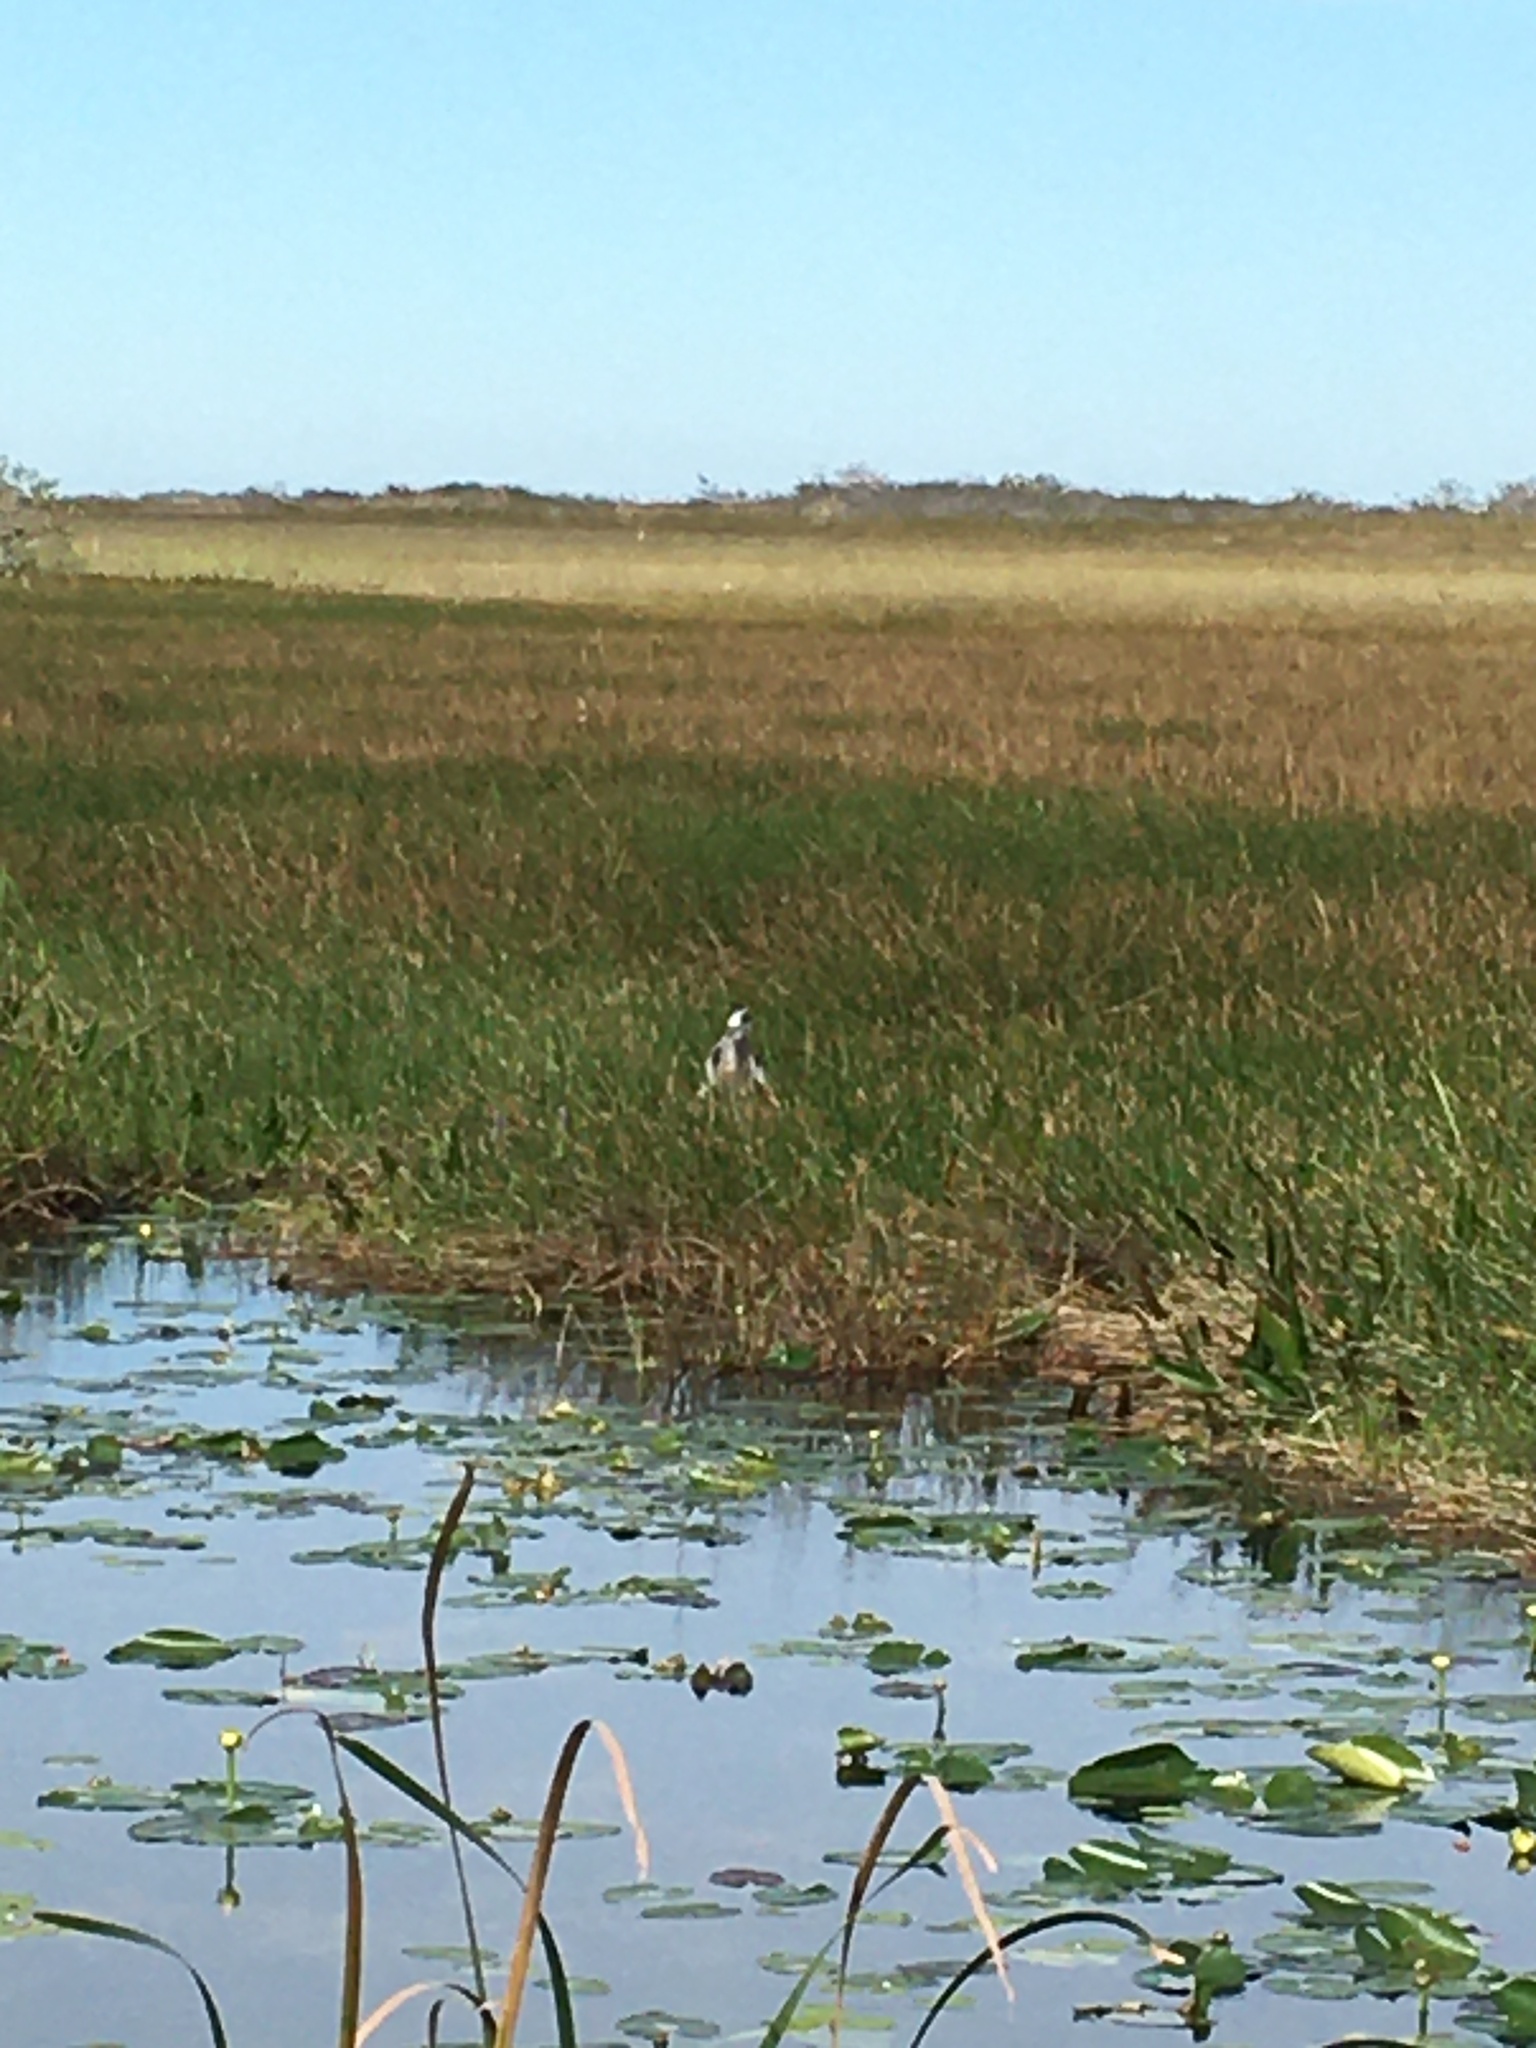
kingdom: Animalia
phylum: Chordata
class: Aves
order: Pelecaniformes
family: Ardeidae
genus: Ardea
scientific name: Ardea herodias
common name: Great blue heron
